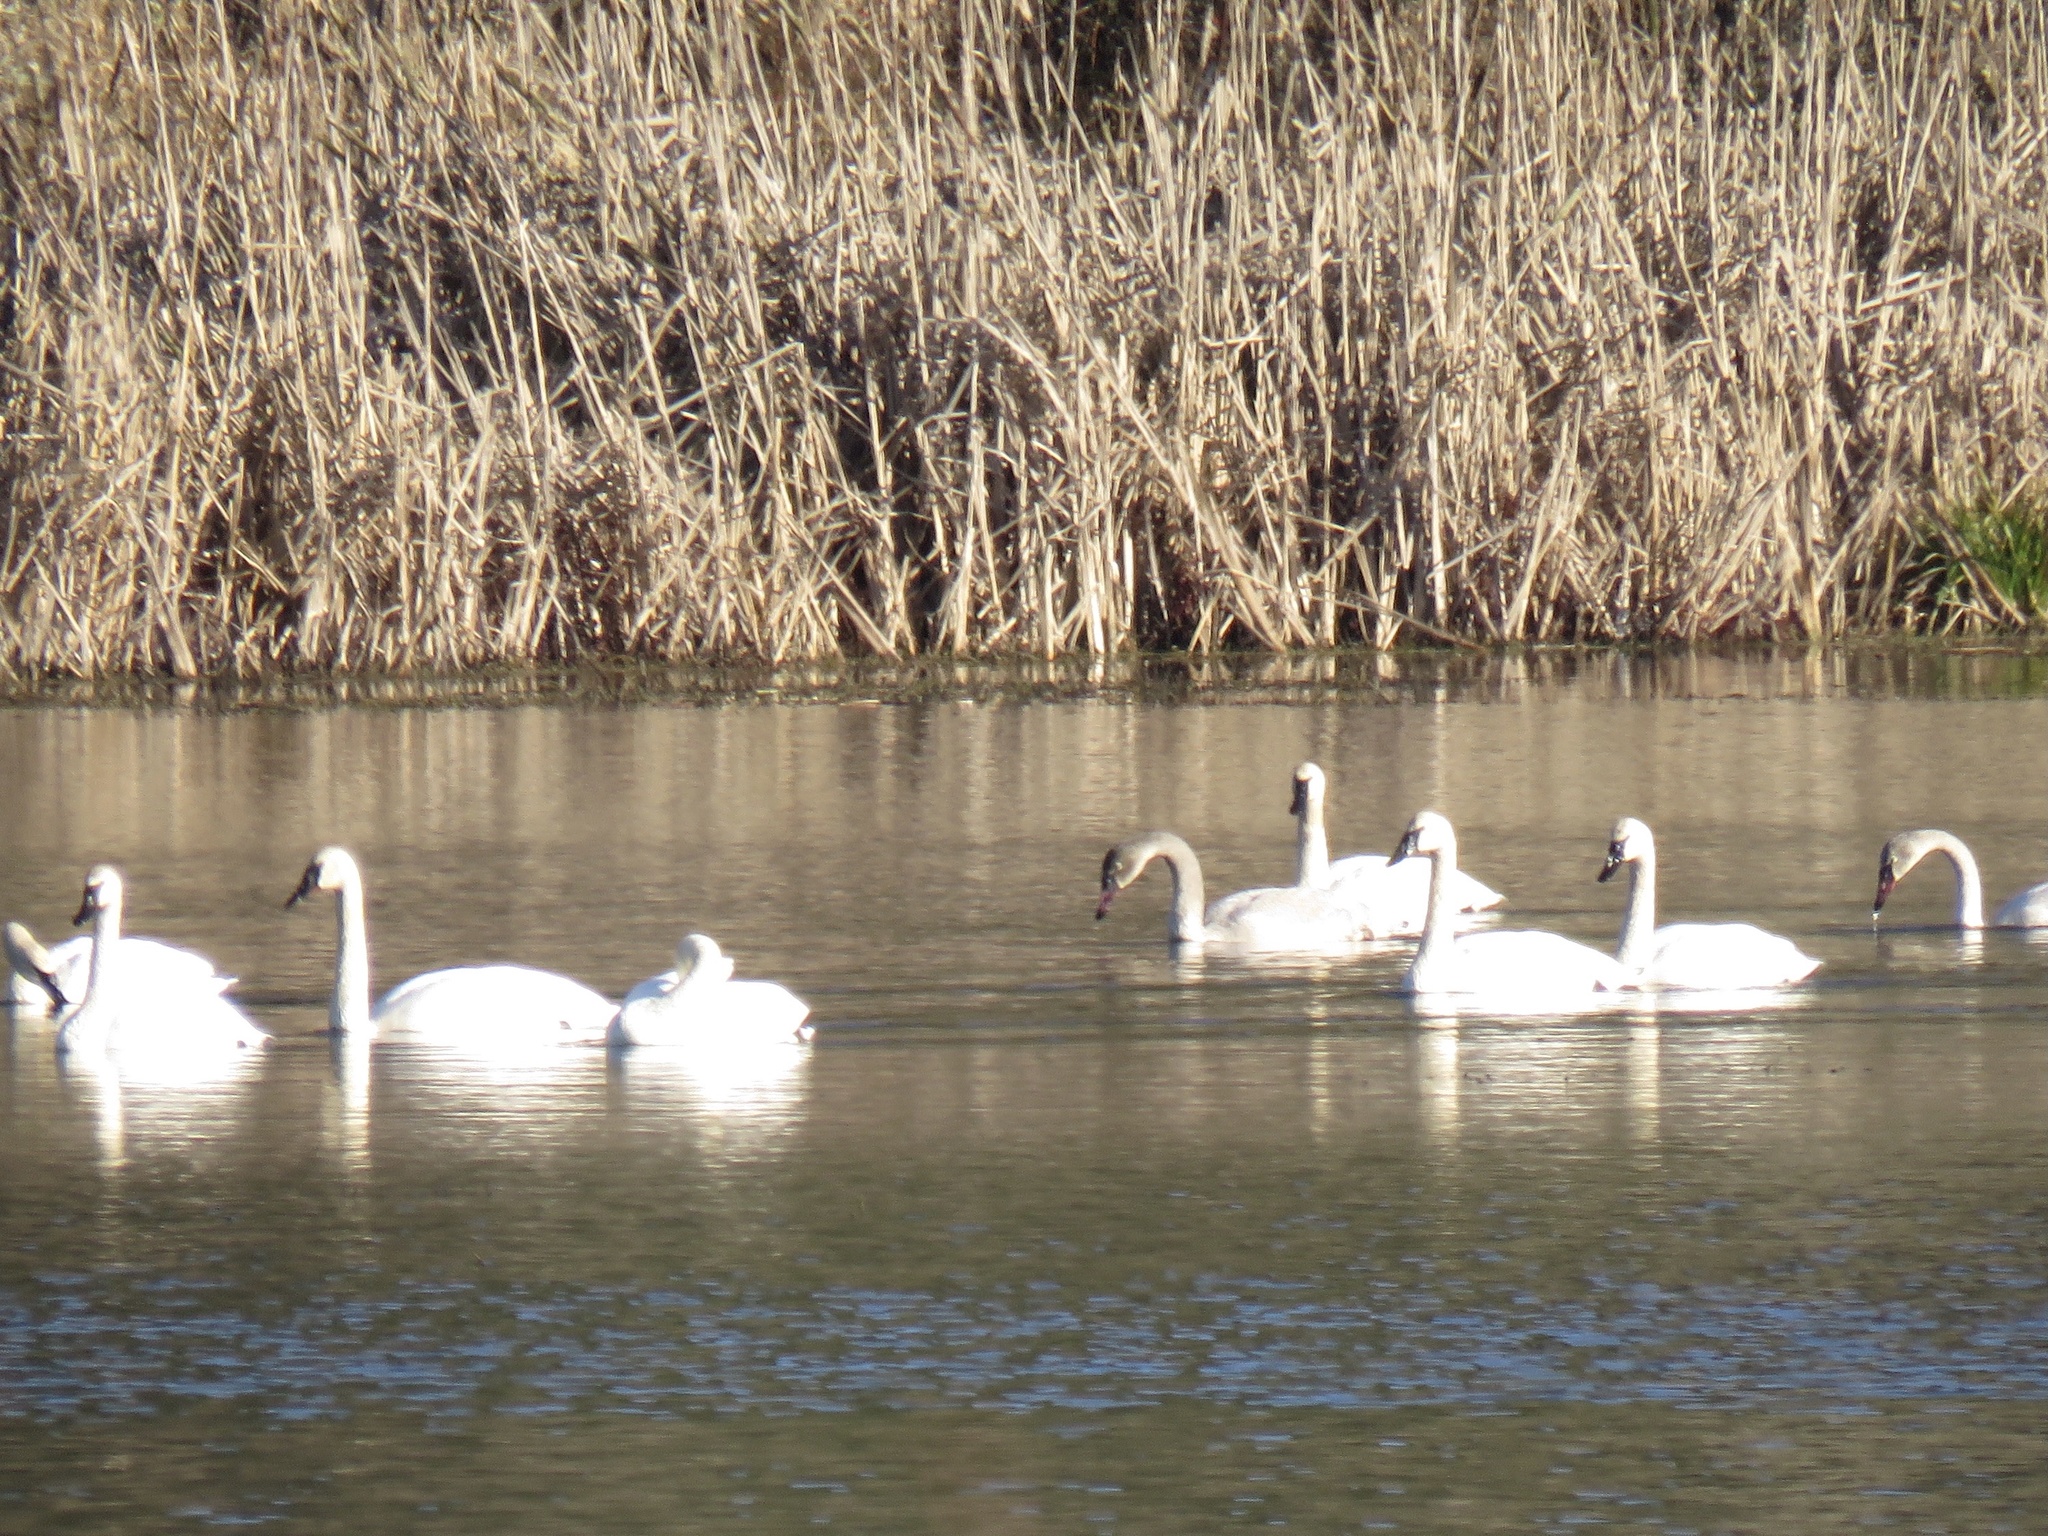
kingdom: Animalia
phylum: Chordata
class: Aves
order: Anseriformes
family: Anatidae
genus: Cygnus
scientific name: Cygnus buccinator
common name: Trumpeter swan
